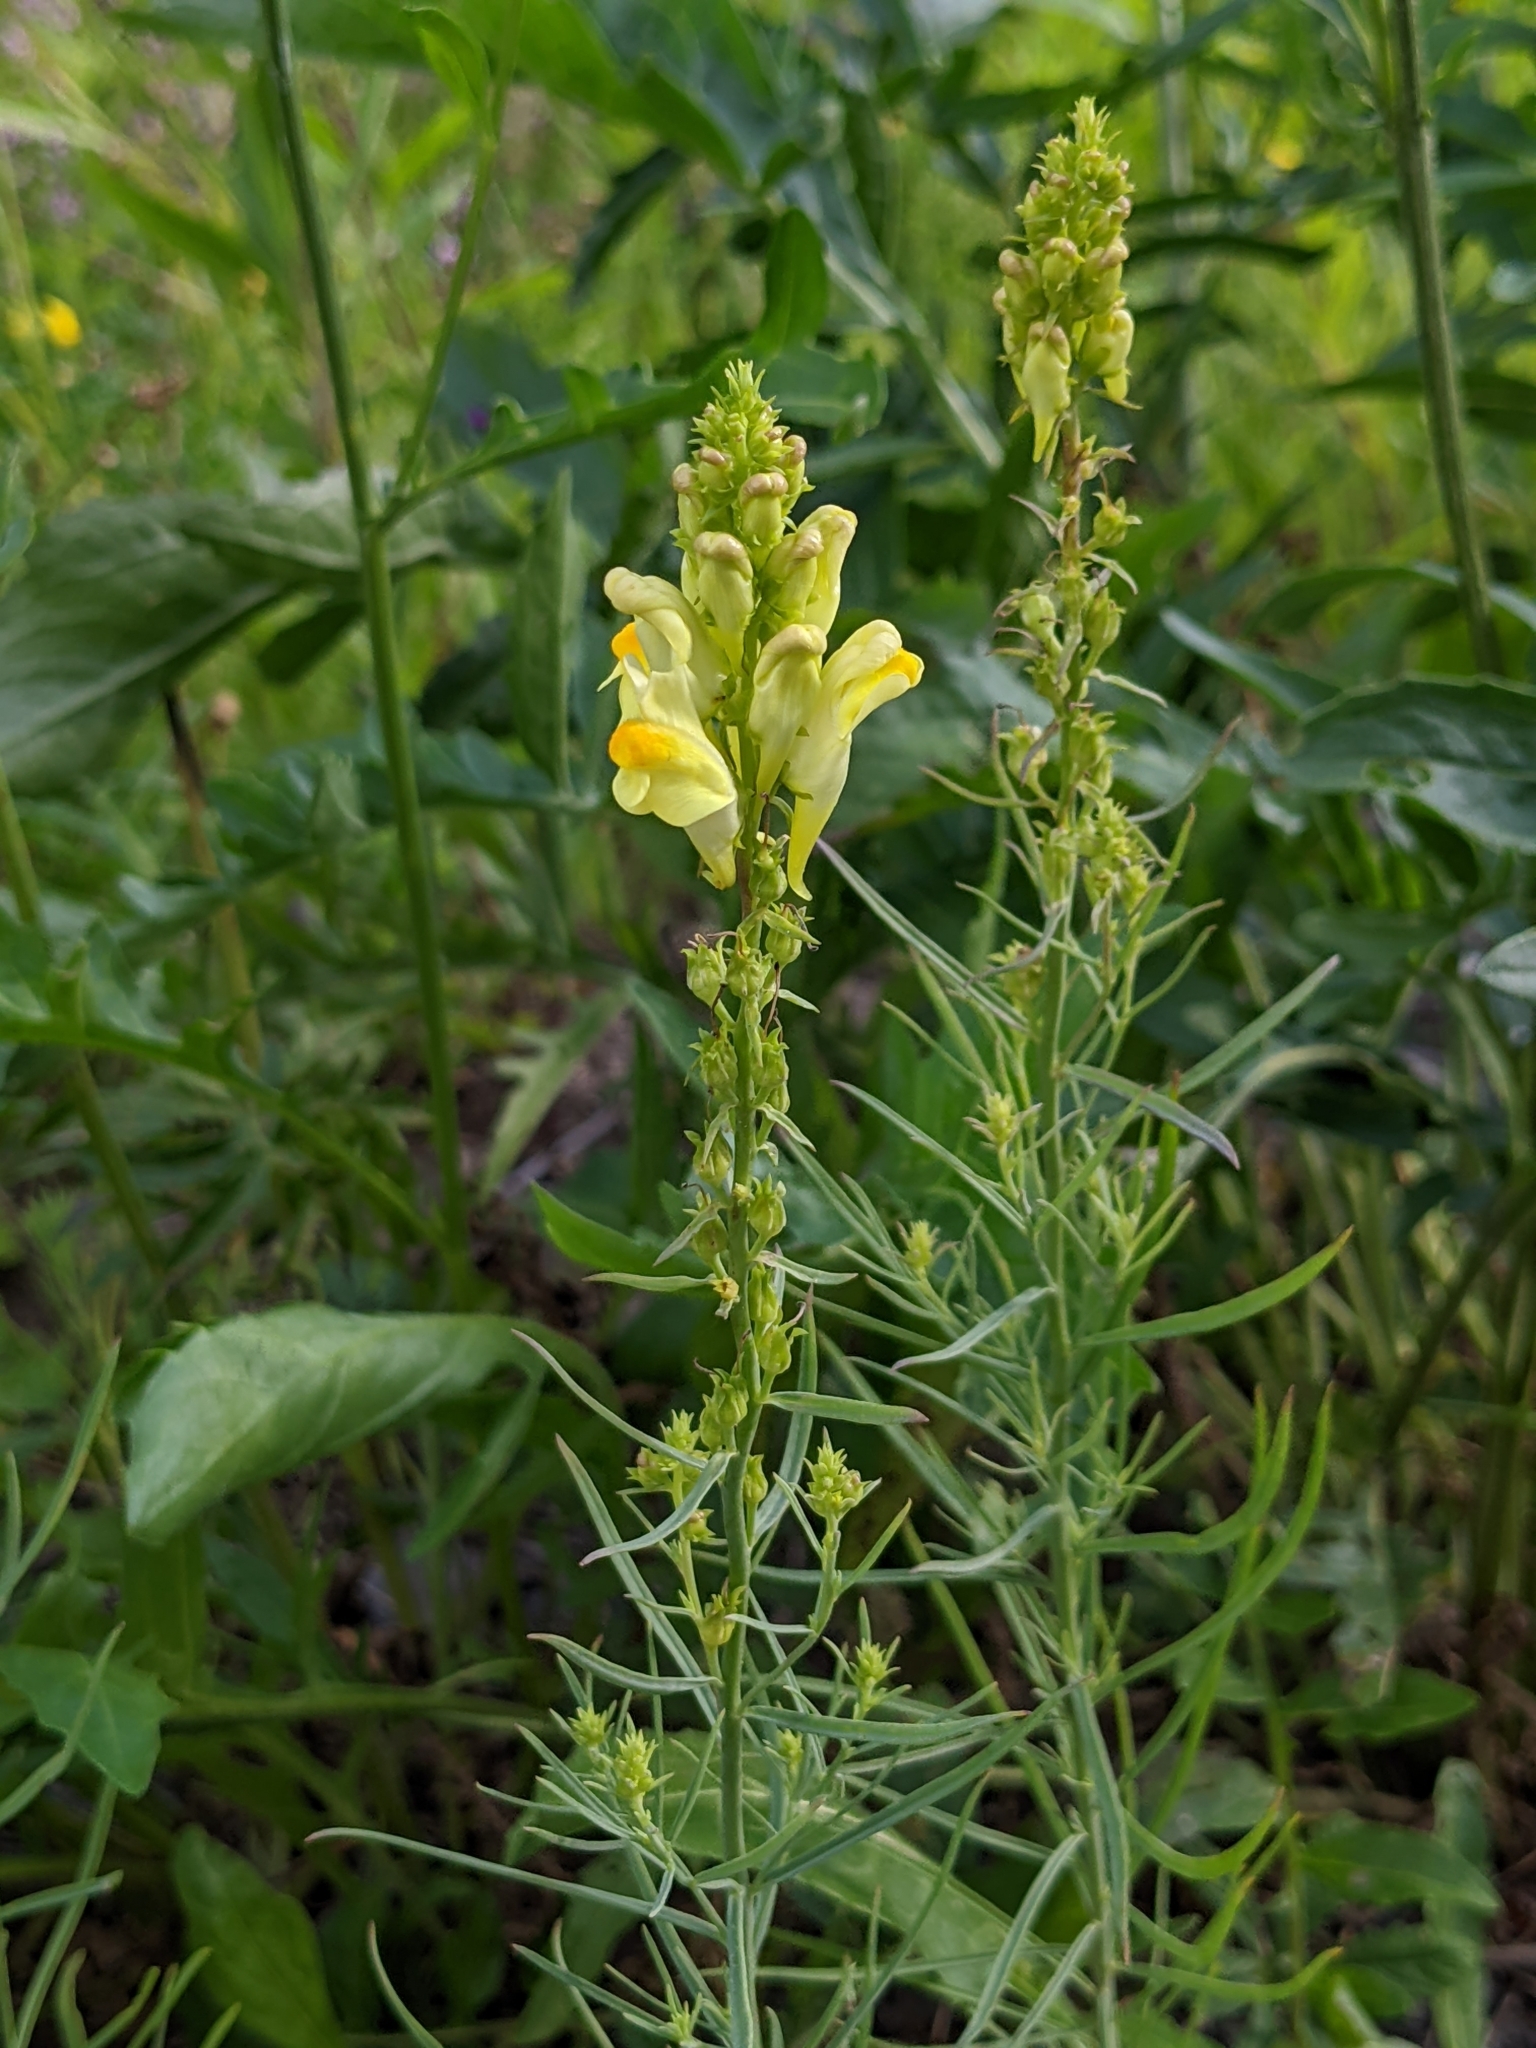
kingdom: Plantae
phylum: Tracheophyta
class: Magnoliopsida
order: Lamiales
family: Plantaginaceae
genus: Linaria
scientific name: Linaria vulgaris
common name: Butter and eggs
